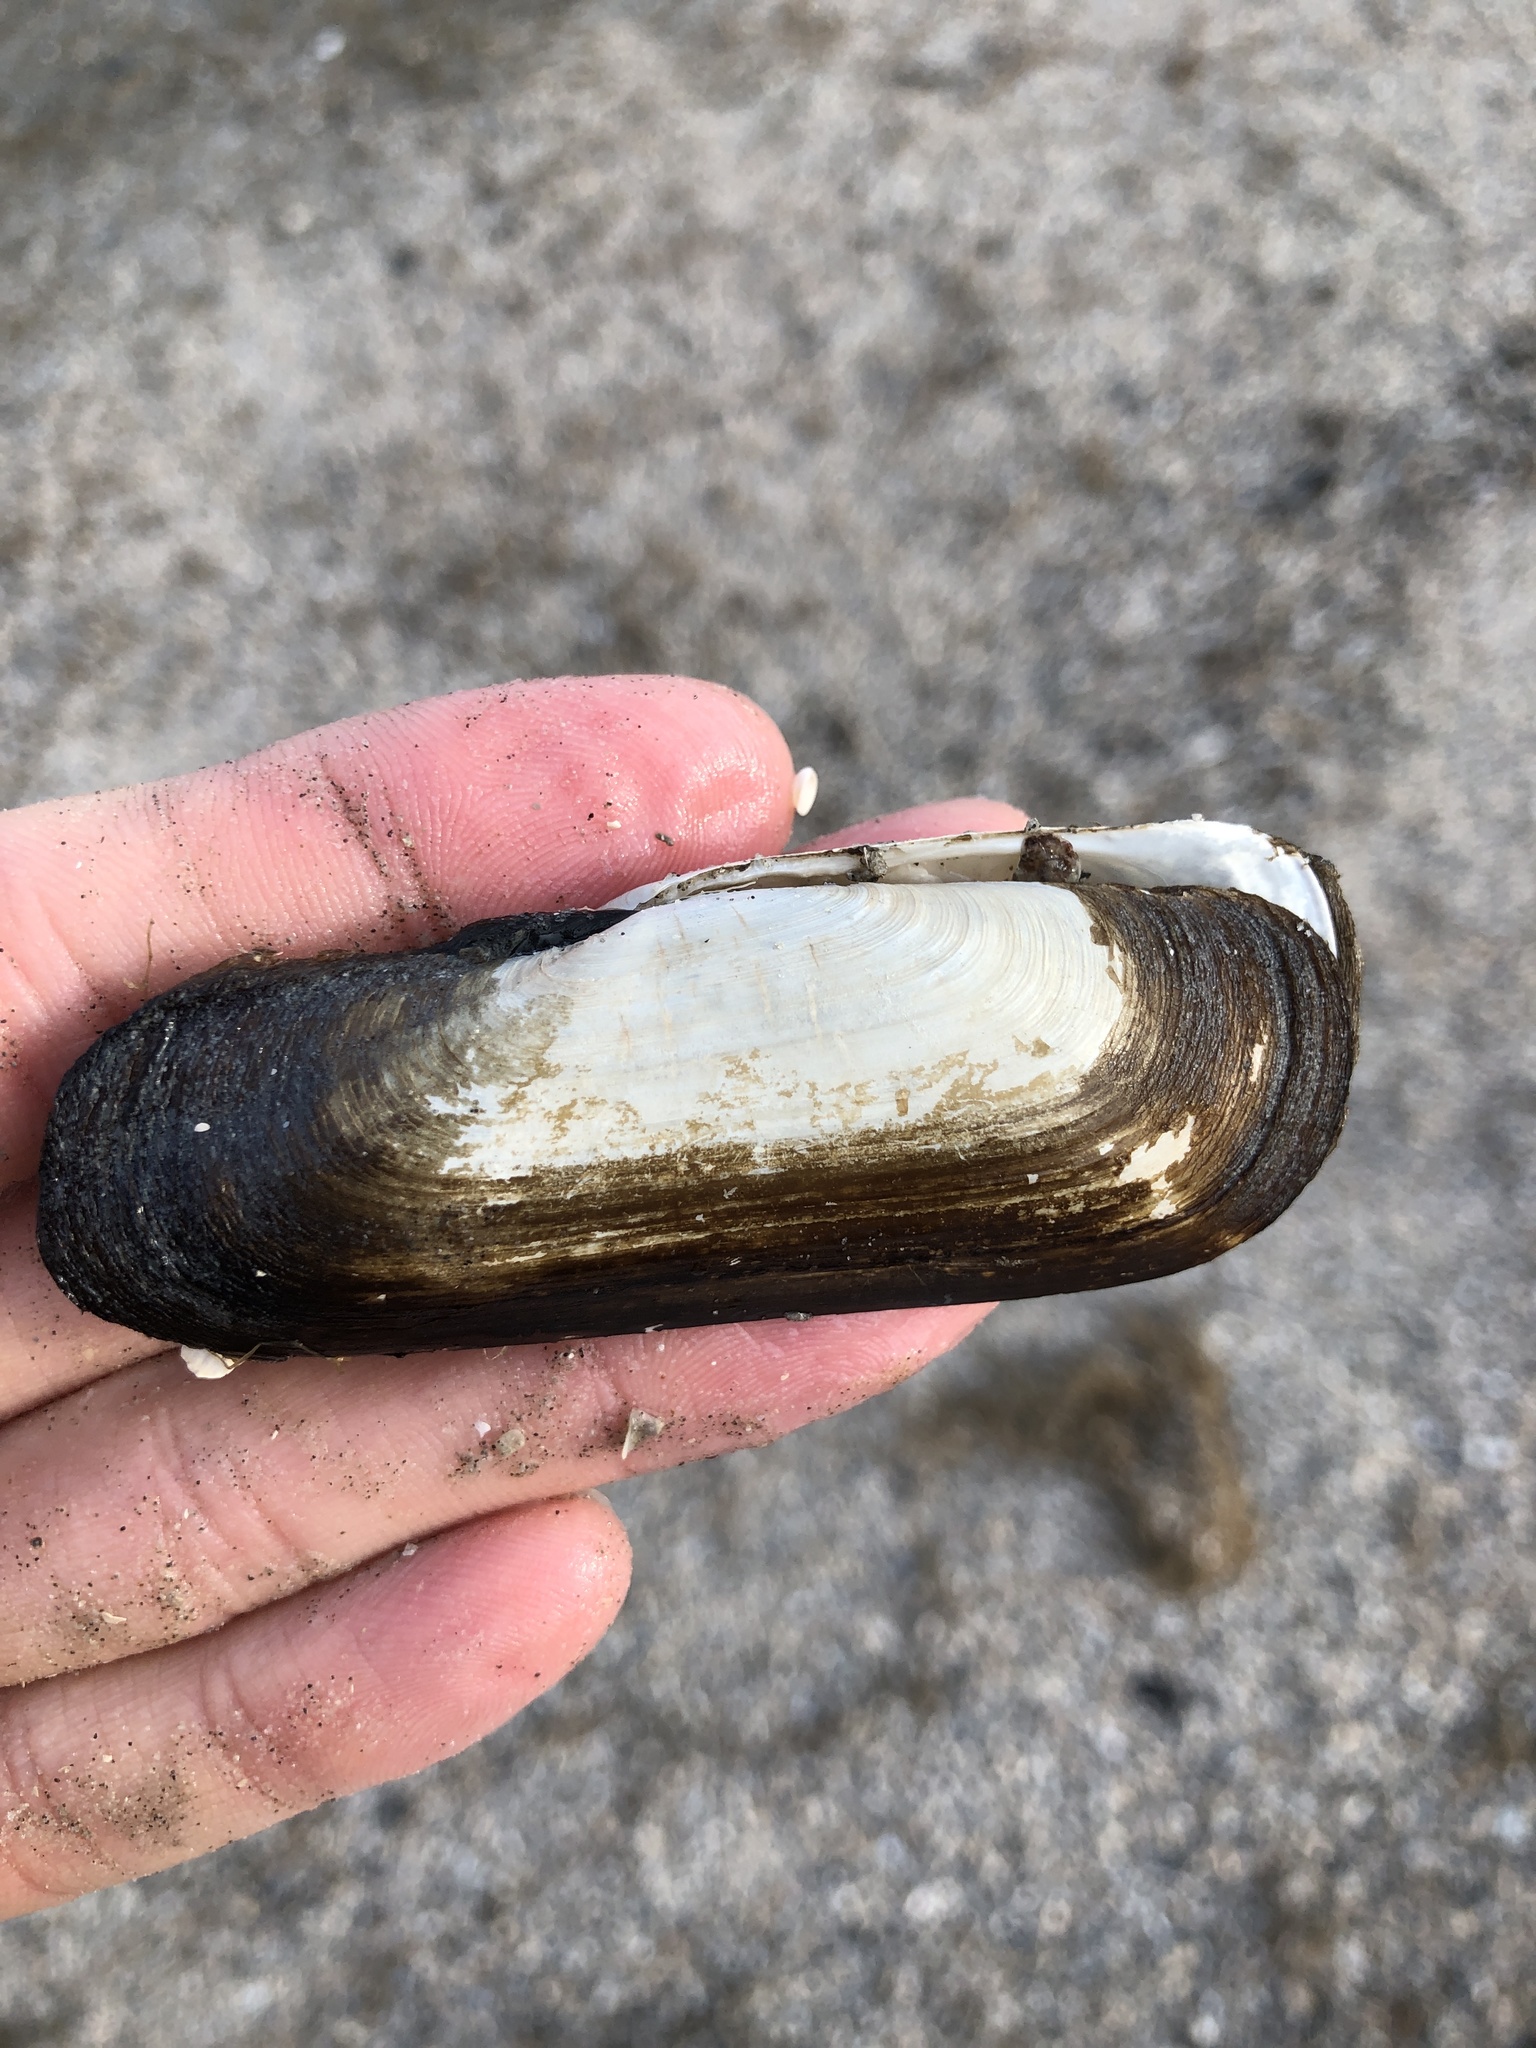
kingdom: Animalia
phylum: Mollusca
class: Bivalvia
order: Cardiida
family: Solecurtidae
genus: Tagelus
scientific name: Tagelus plebeius
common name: Stout tagelus
